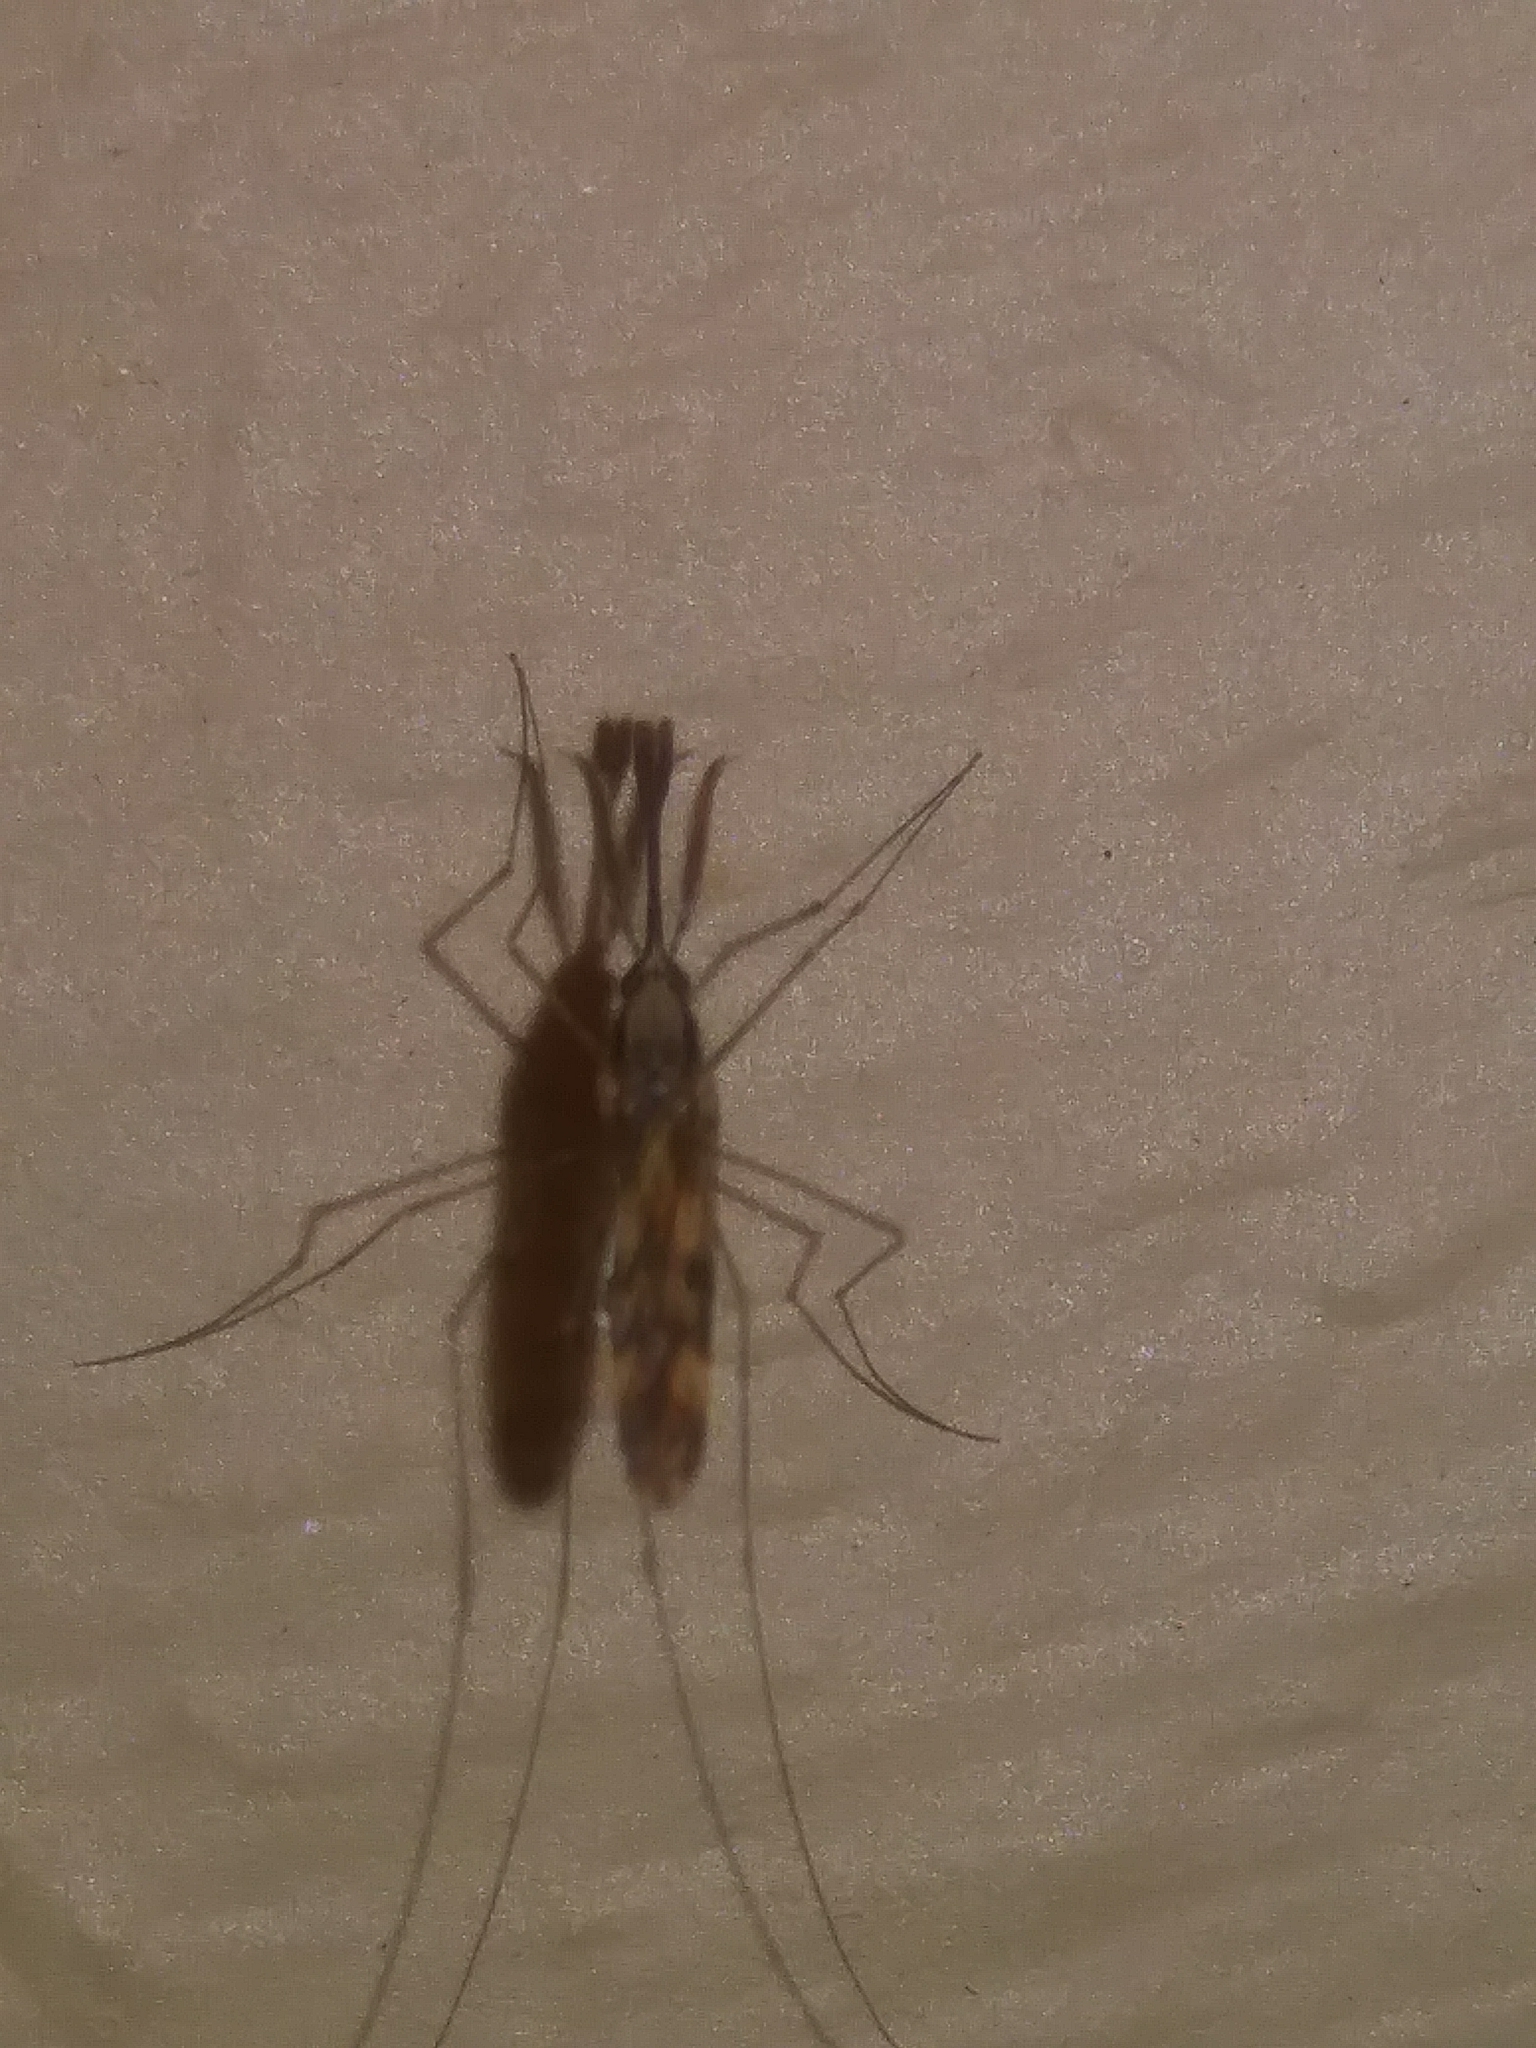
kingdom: Animalia
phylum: Arthropoda
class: Insecta
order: Diptera
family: Culicidae
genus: Anopheles
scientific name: Anopheles punctipennis
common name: Woodland malaria mosquito
